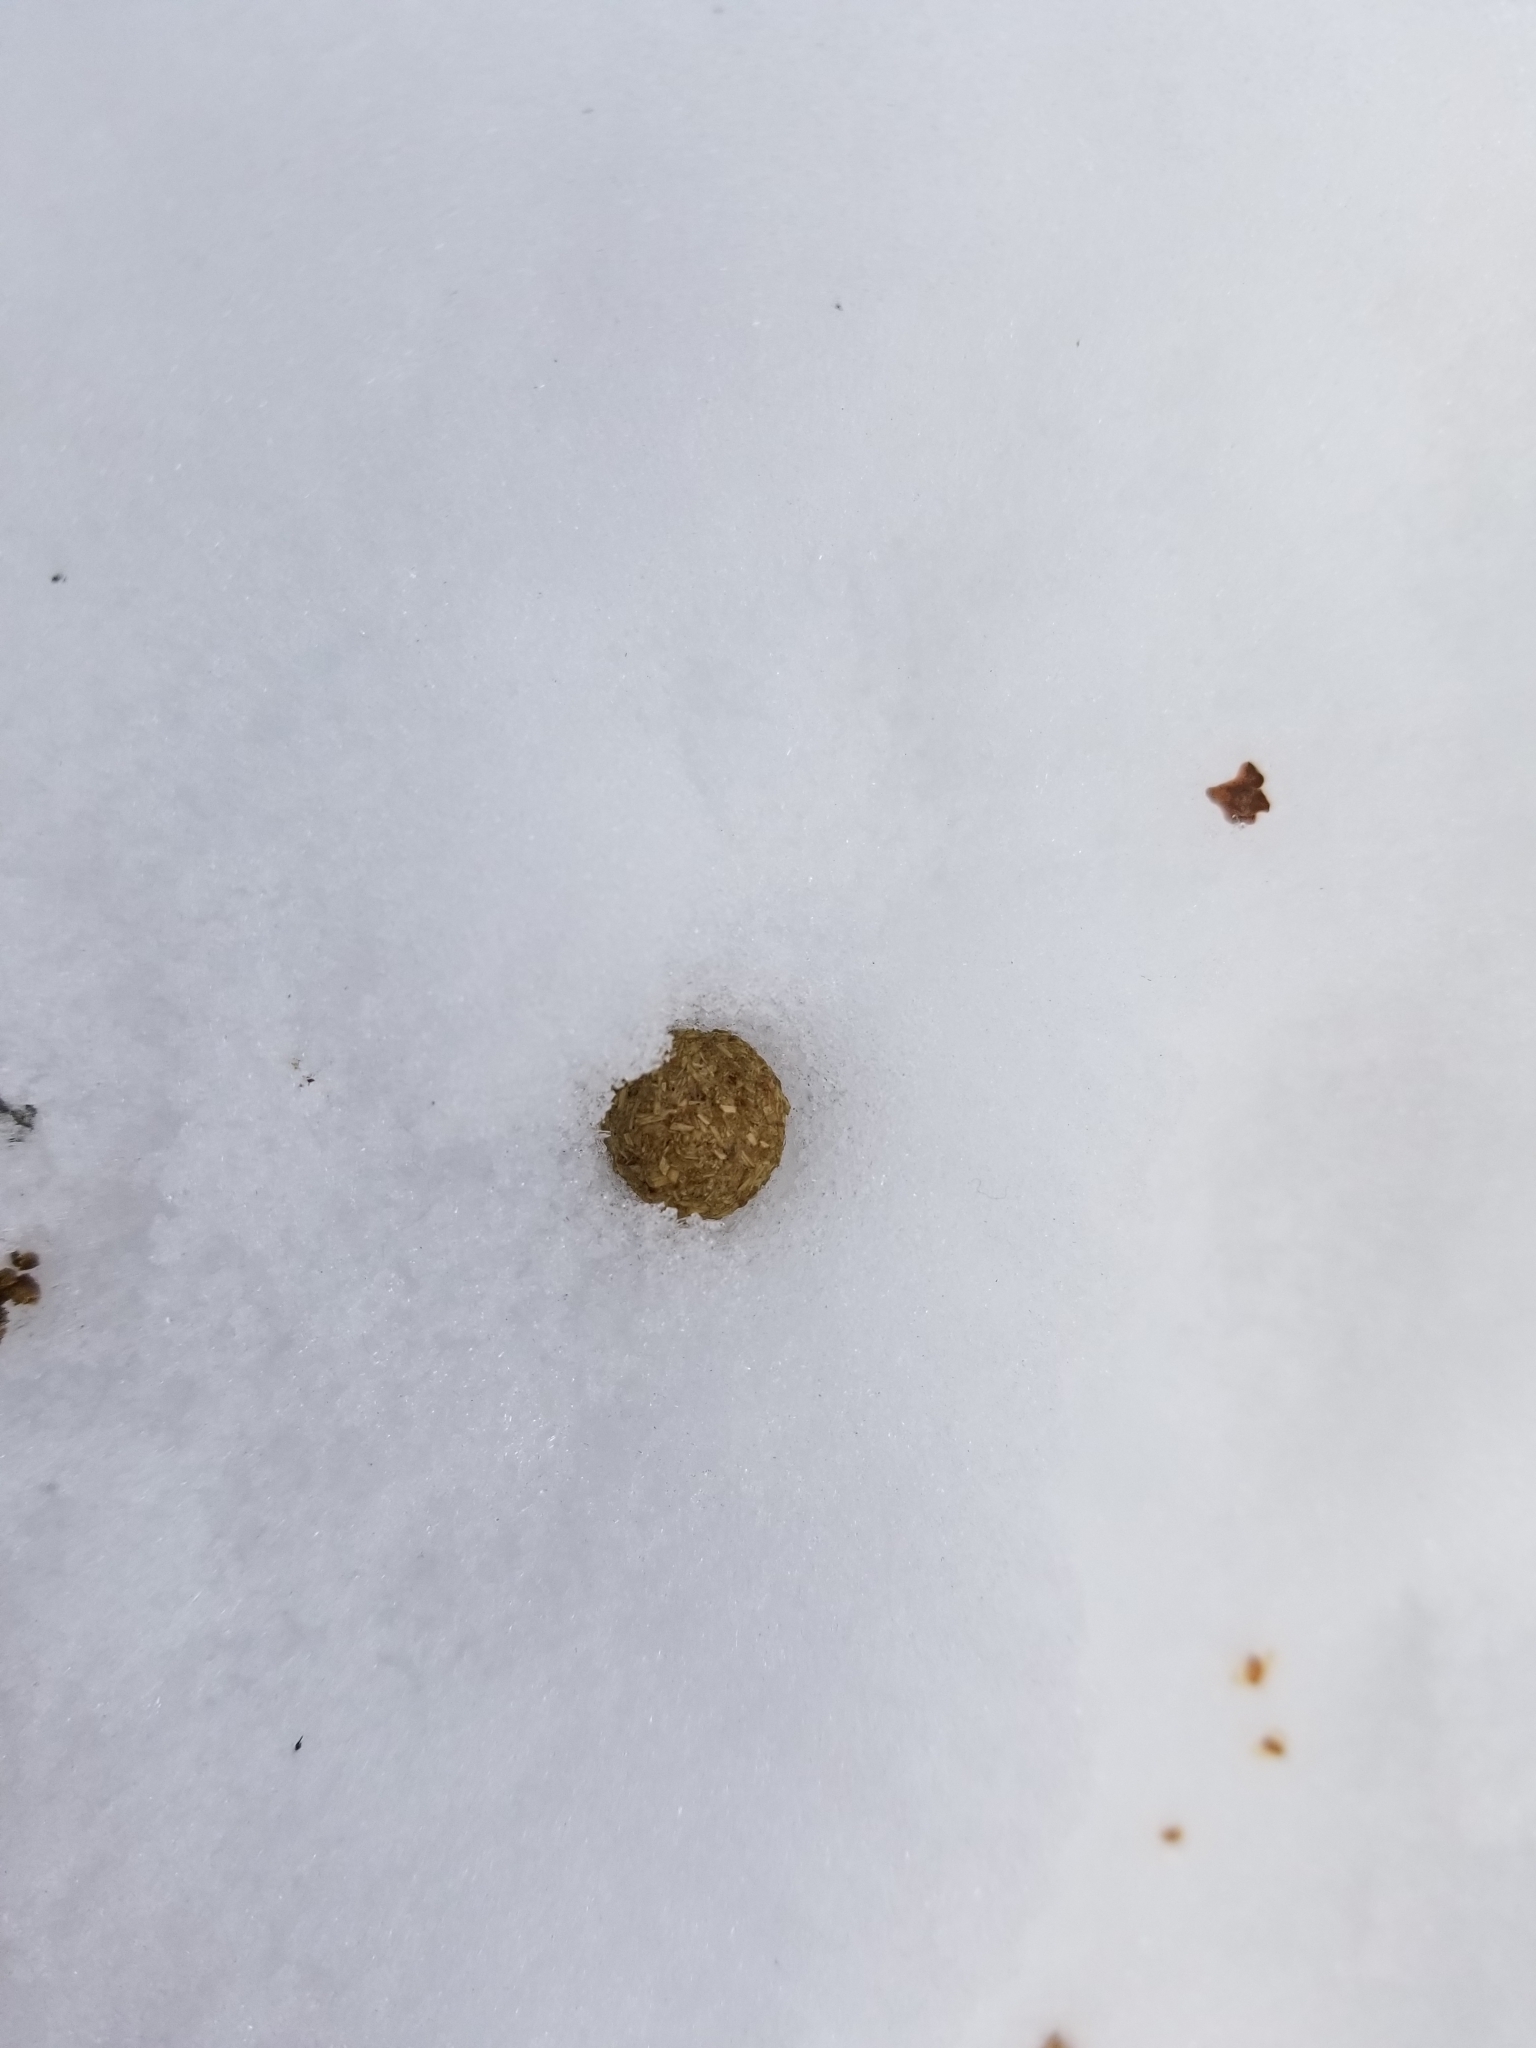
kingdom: Animalia
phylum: Chordata
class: Mammalia
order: Lagomorpha
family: Leporidae
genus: Lepus
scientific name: Lepus americanus
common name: Snowshoe hare
